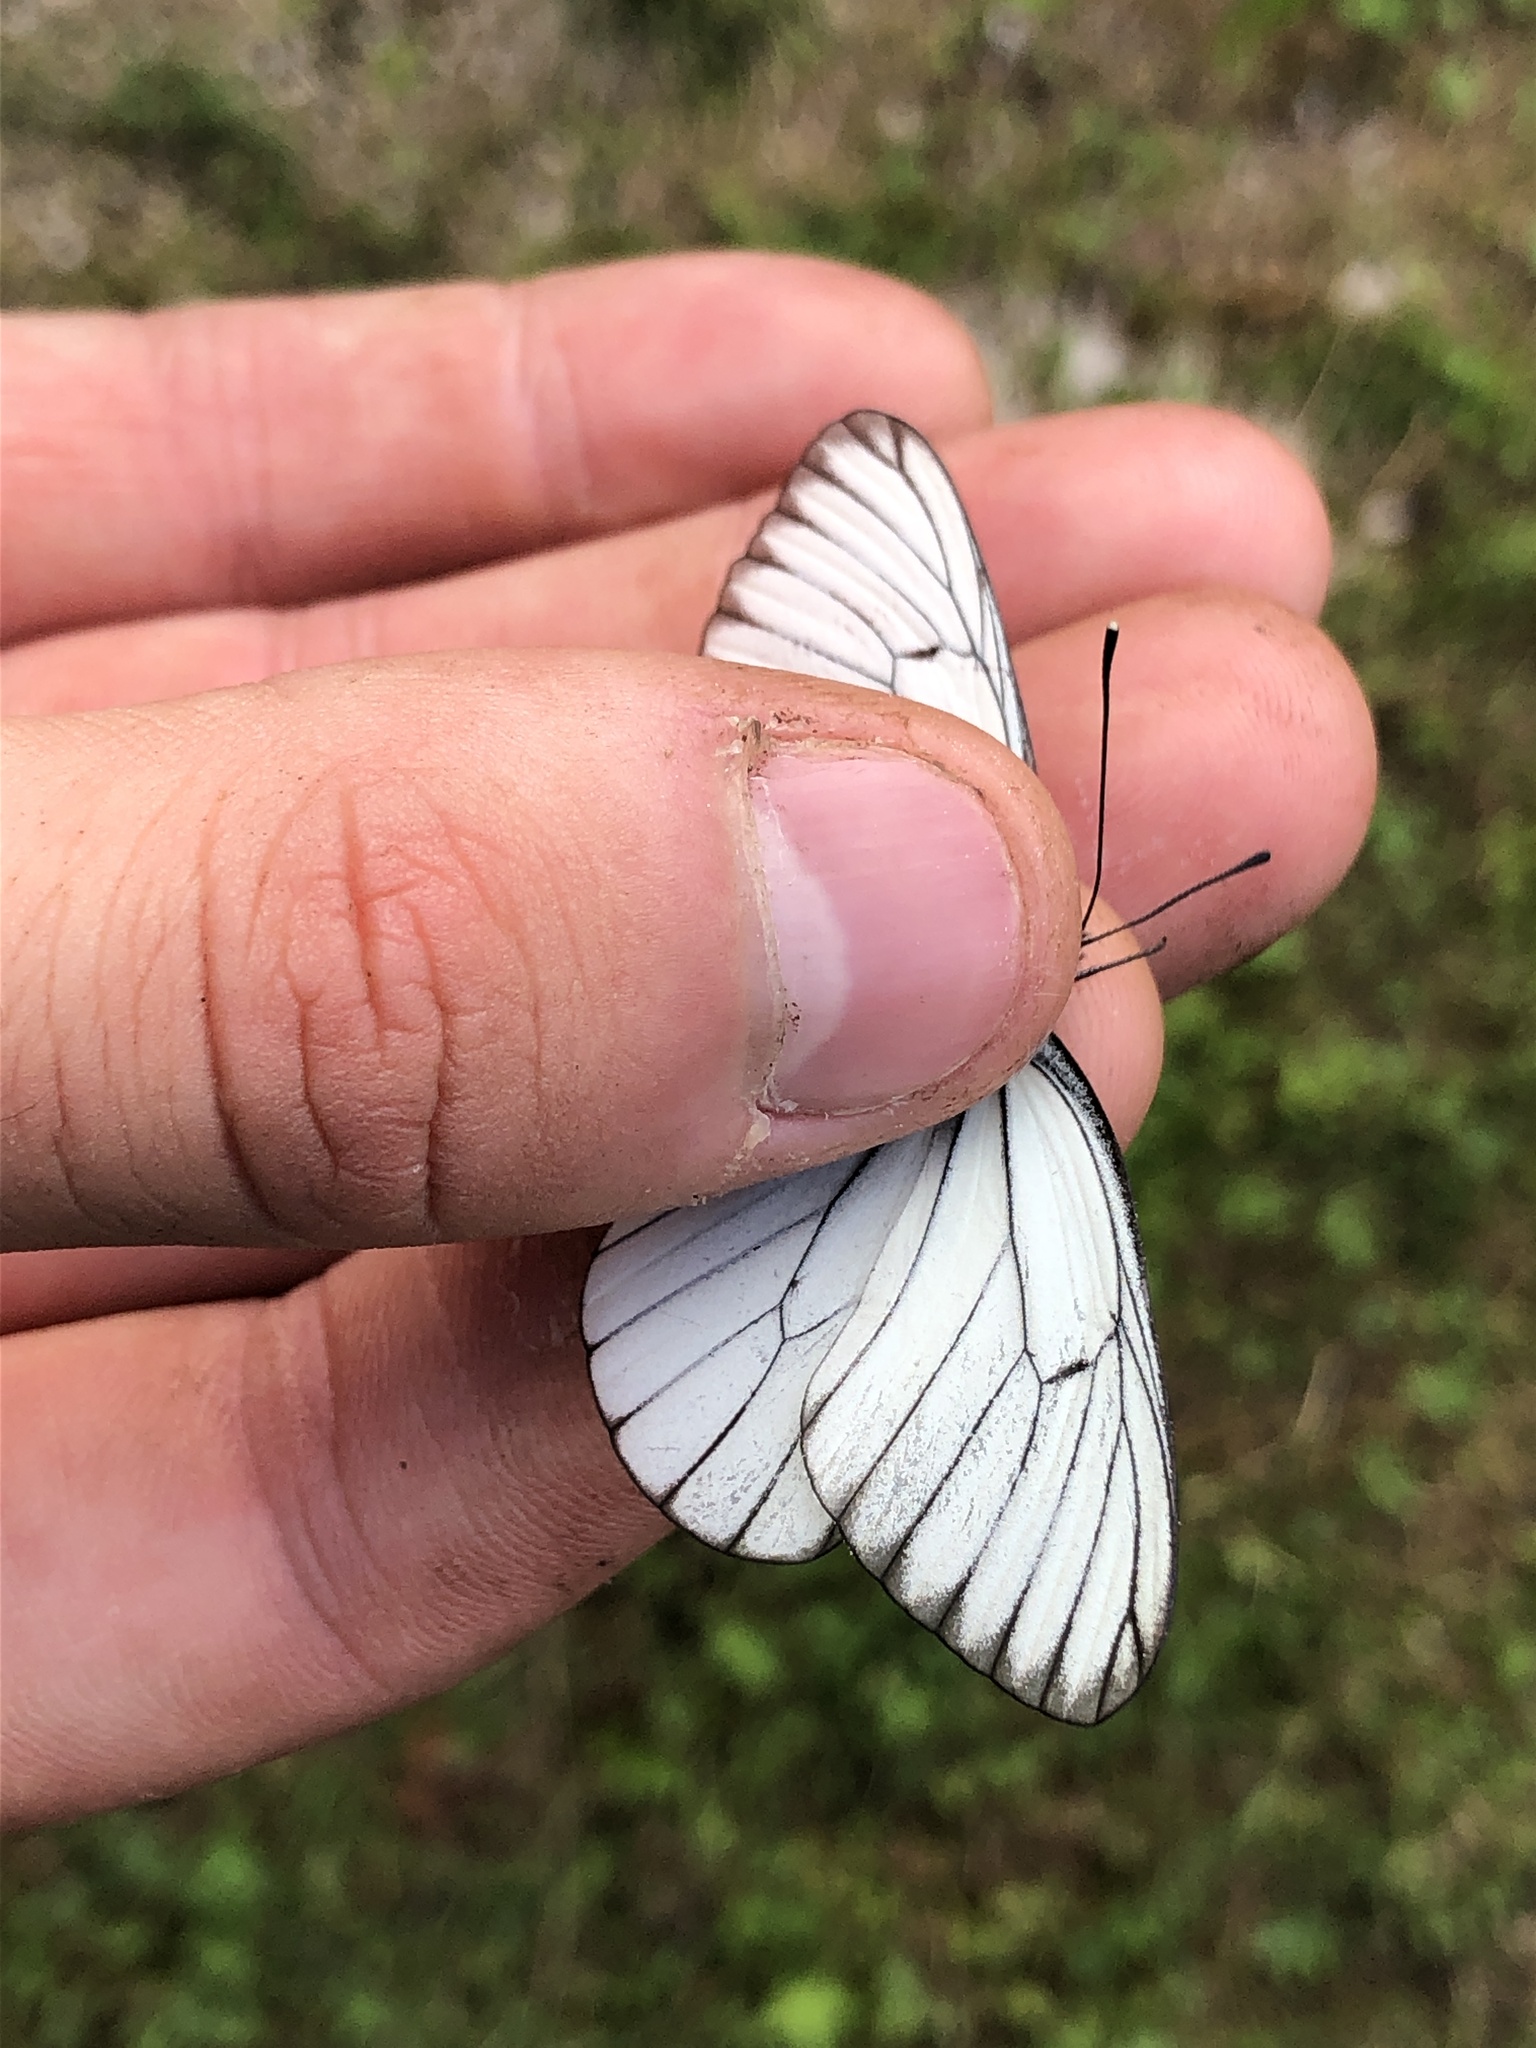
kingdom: Animalia
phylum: Arthropoda
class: Insecta
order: Lepidoptera
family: Pieridae
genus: Aporia
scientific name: Aporia crataegi
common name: Black-veined white
